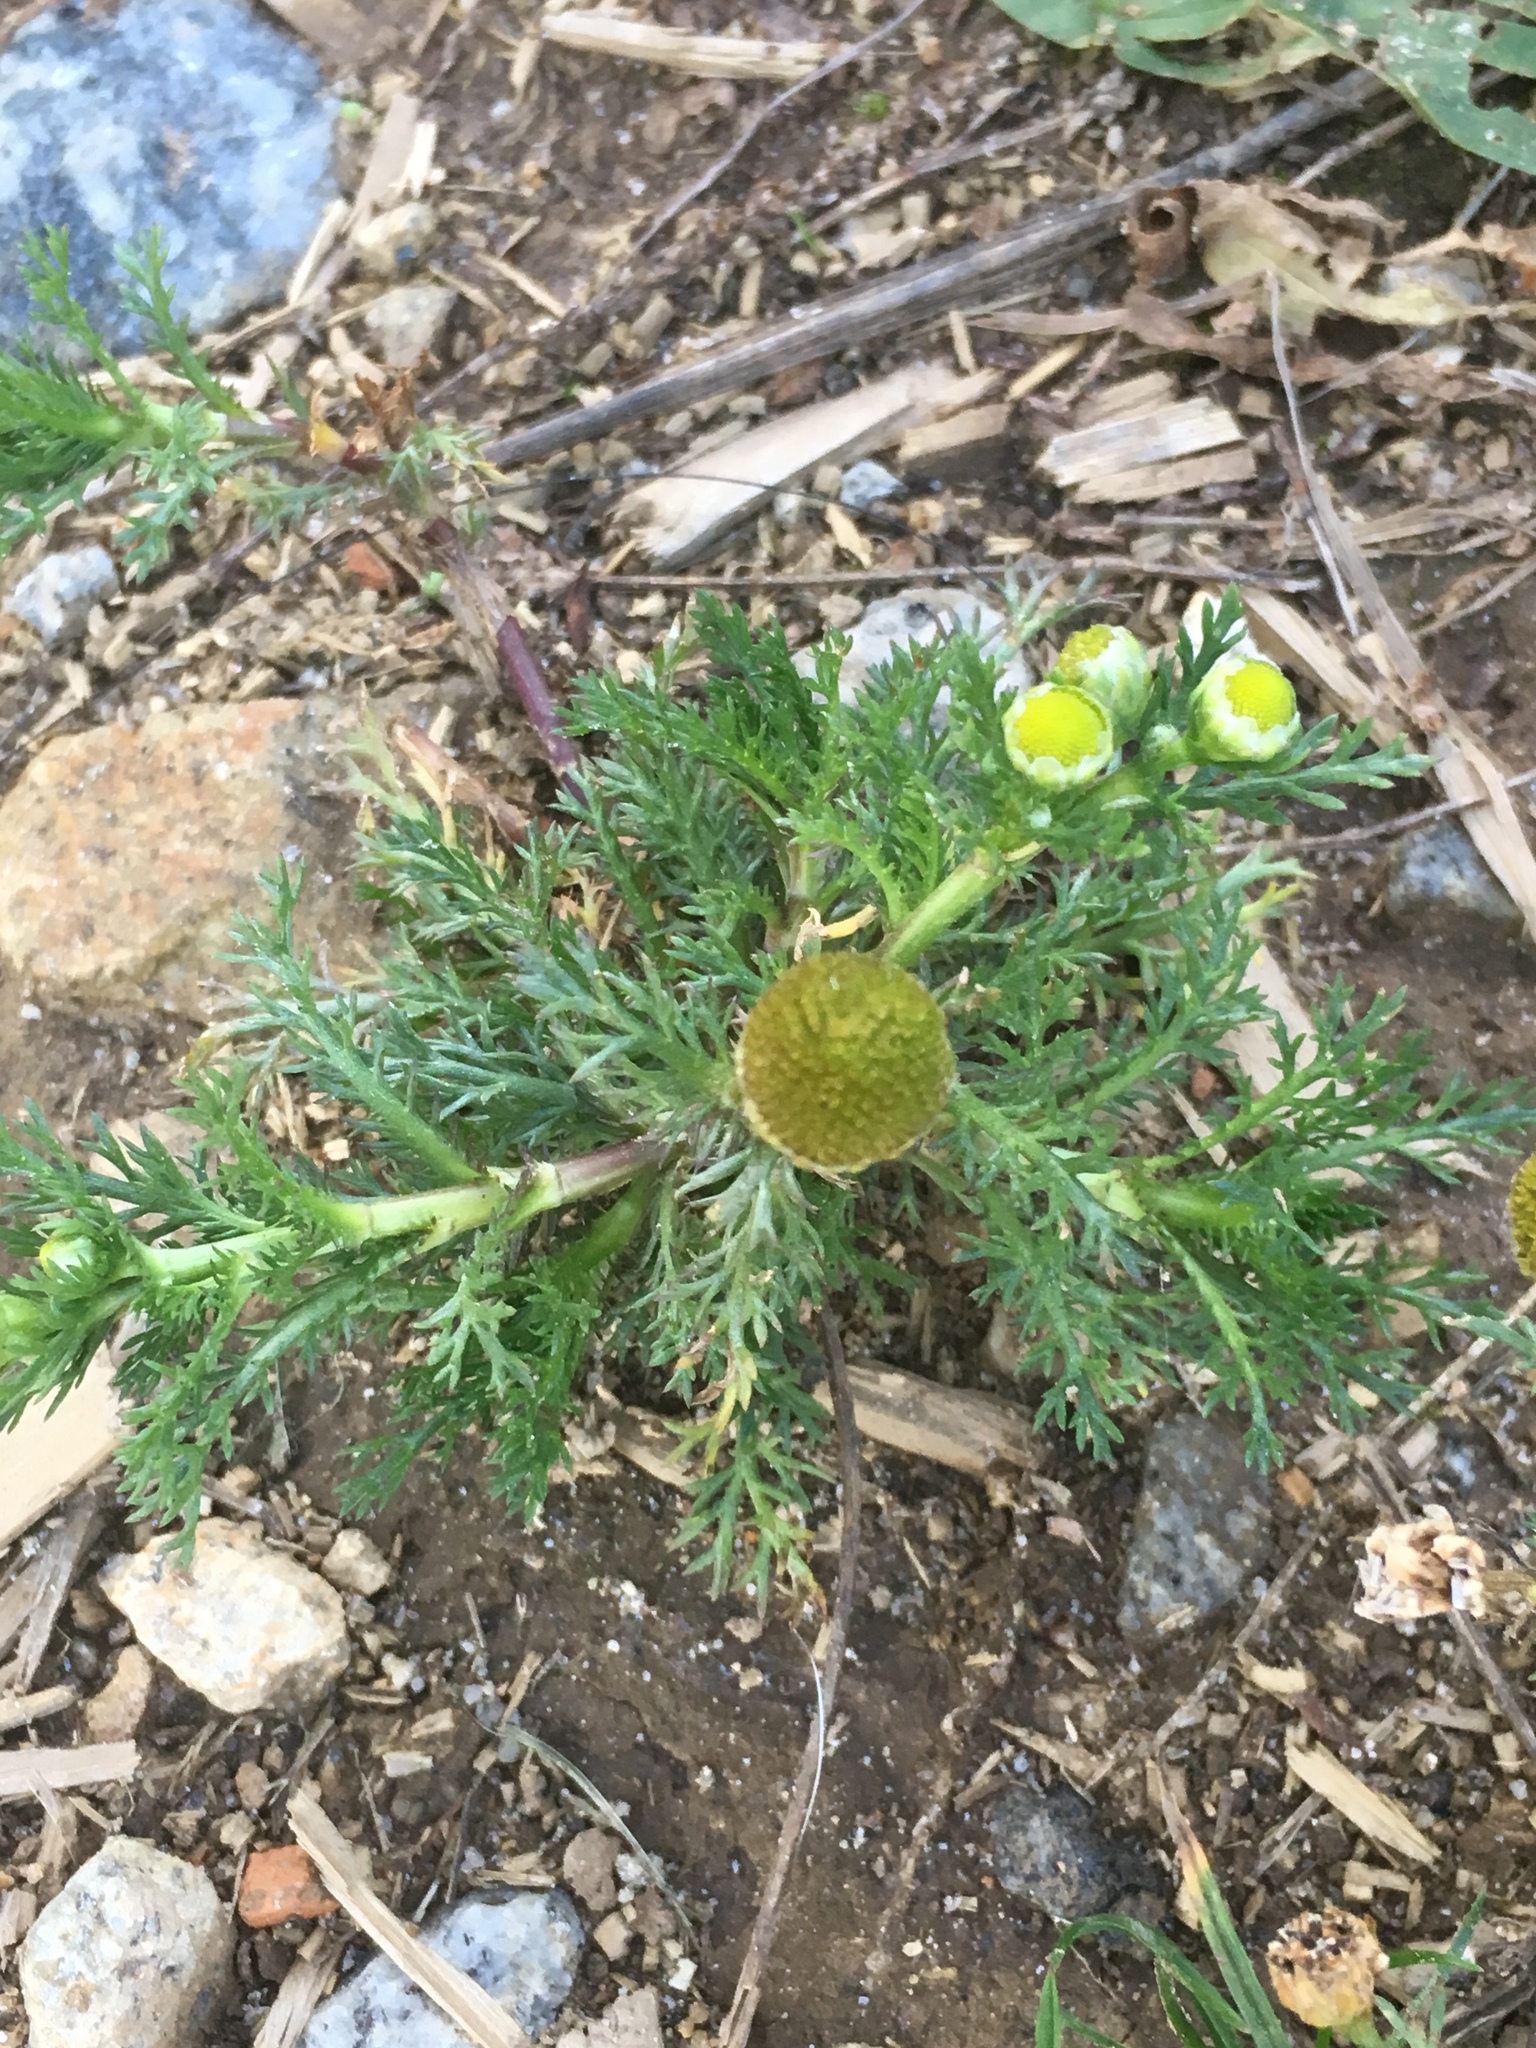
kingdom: Plantae
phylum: Tracheophyta
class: Magnoliopsida
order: Asterales
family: Asteraceae
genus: Matricaria
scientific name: Matricaria discoidea
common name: Disc mayweed
